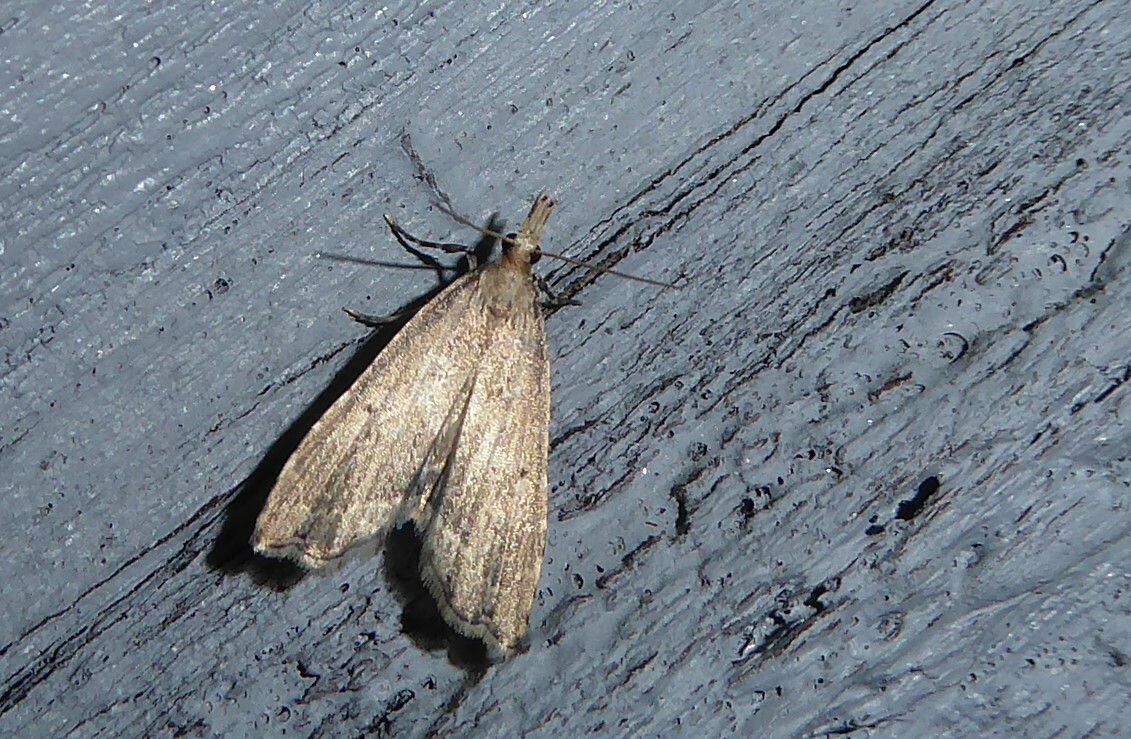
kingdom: Animalia
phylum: Arthropoda
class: Insecta
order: Lepidoptera
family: Crambidae
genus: Diplopseustis
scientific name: Diplopseustis perieresalis
